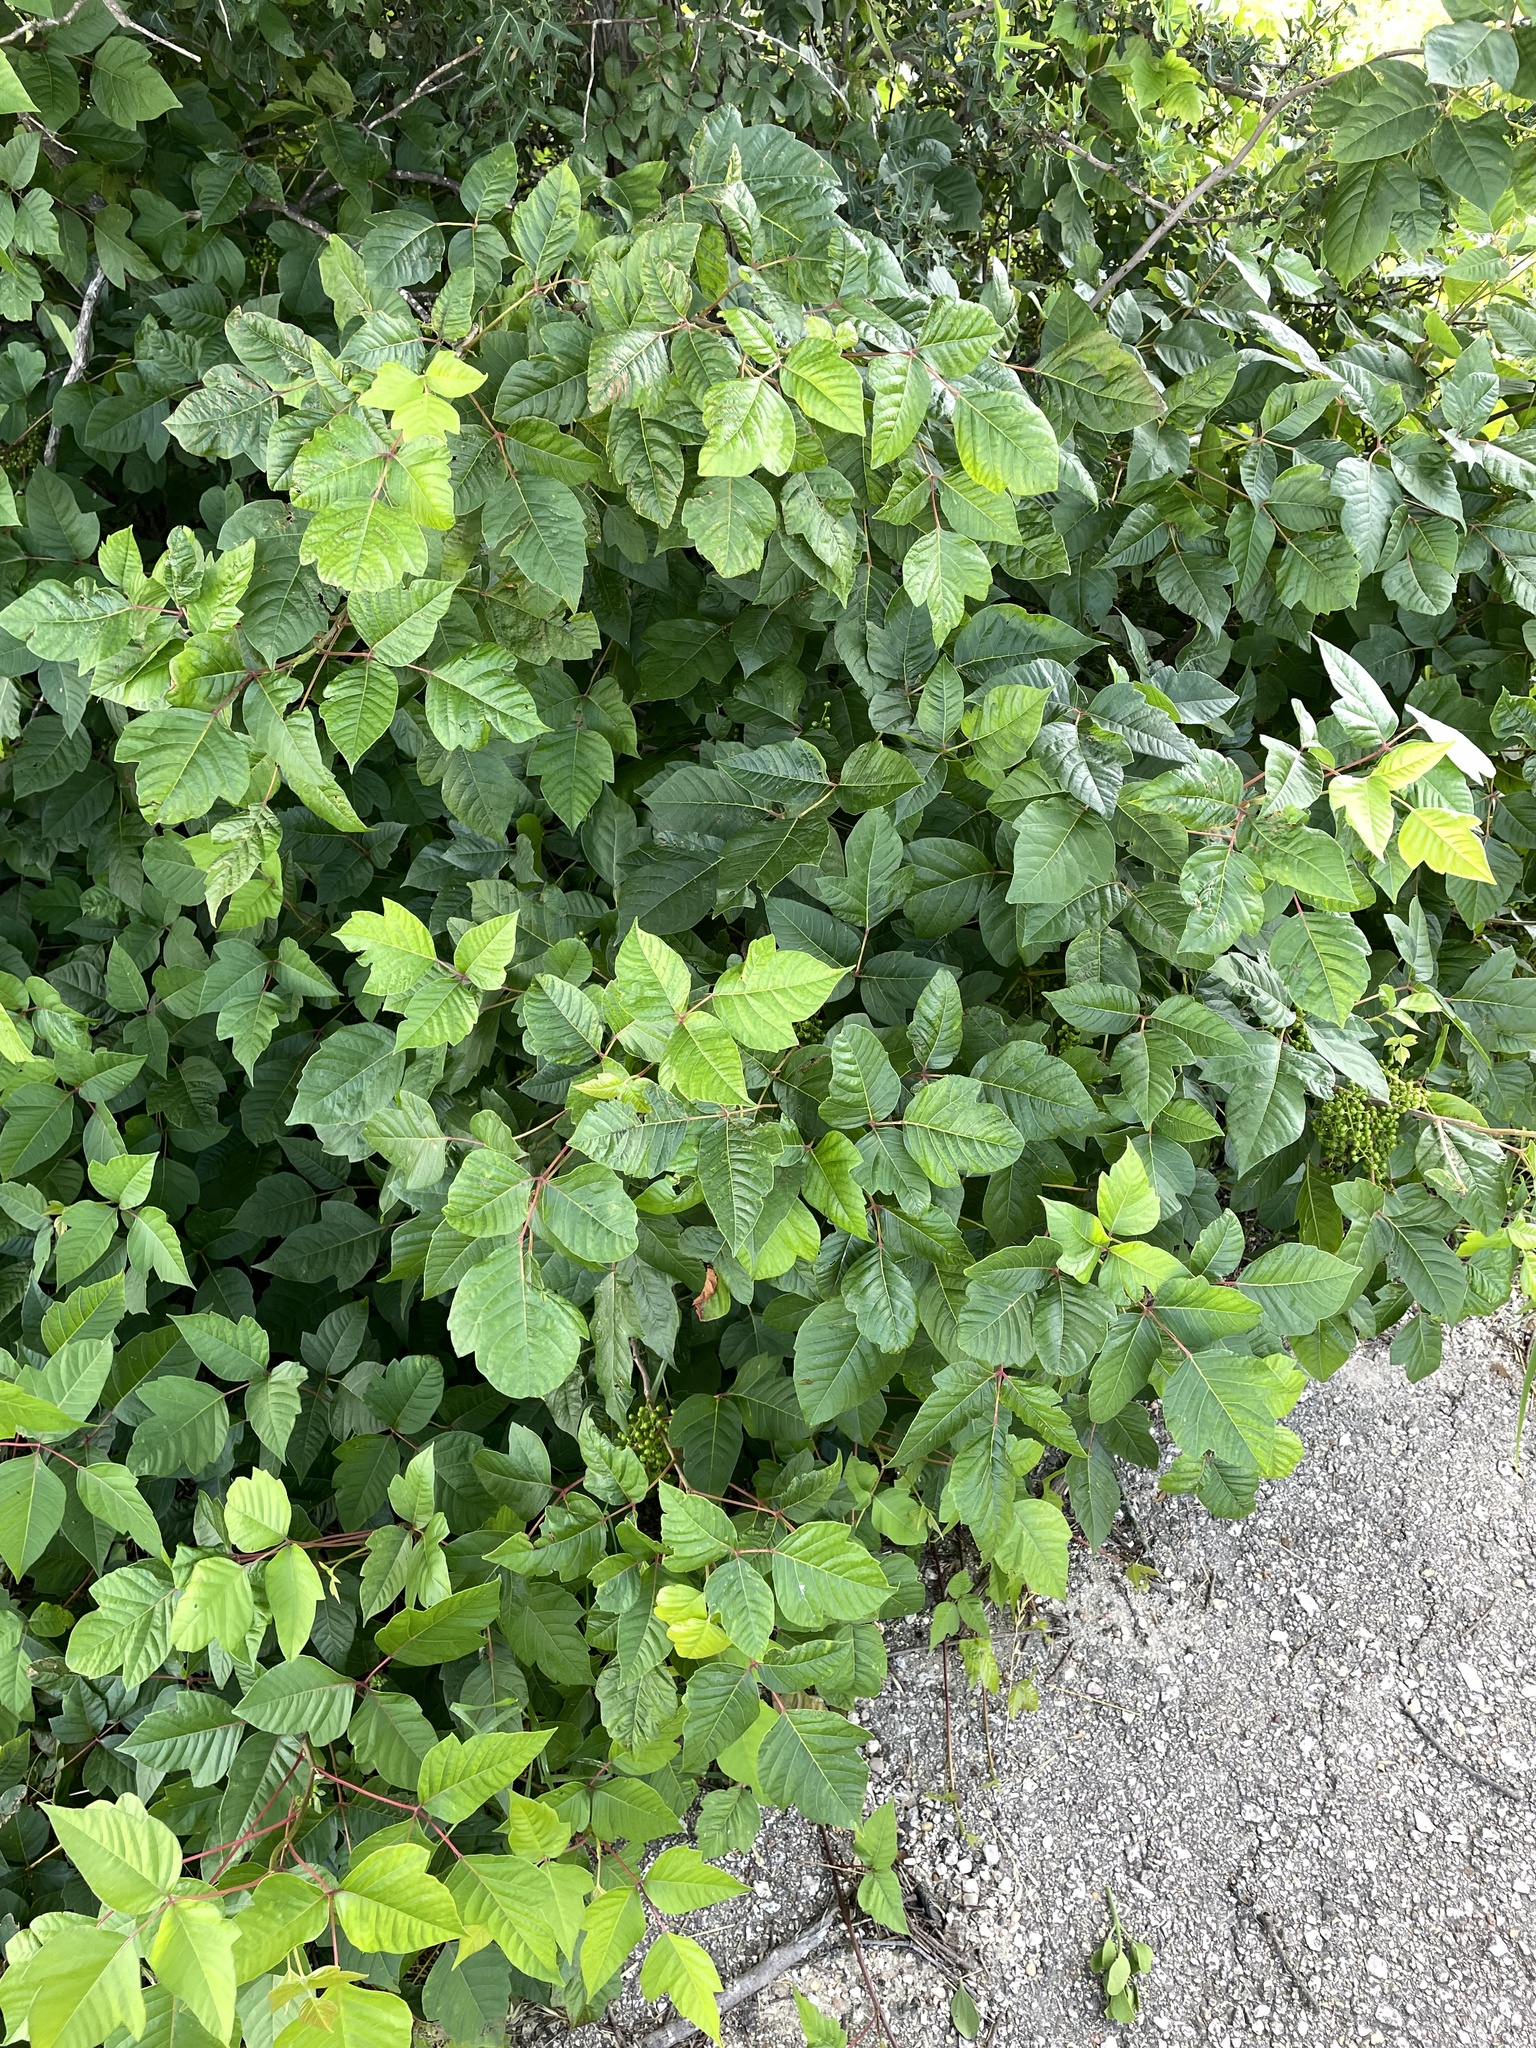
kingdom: Plantae
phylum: Tracheophyta
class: Magnoliopsida
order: Sapindales
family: Anacardiaceae
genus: Toxicodendron
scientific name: Toxicodendron radicans
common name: Poison ivy
